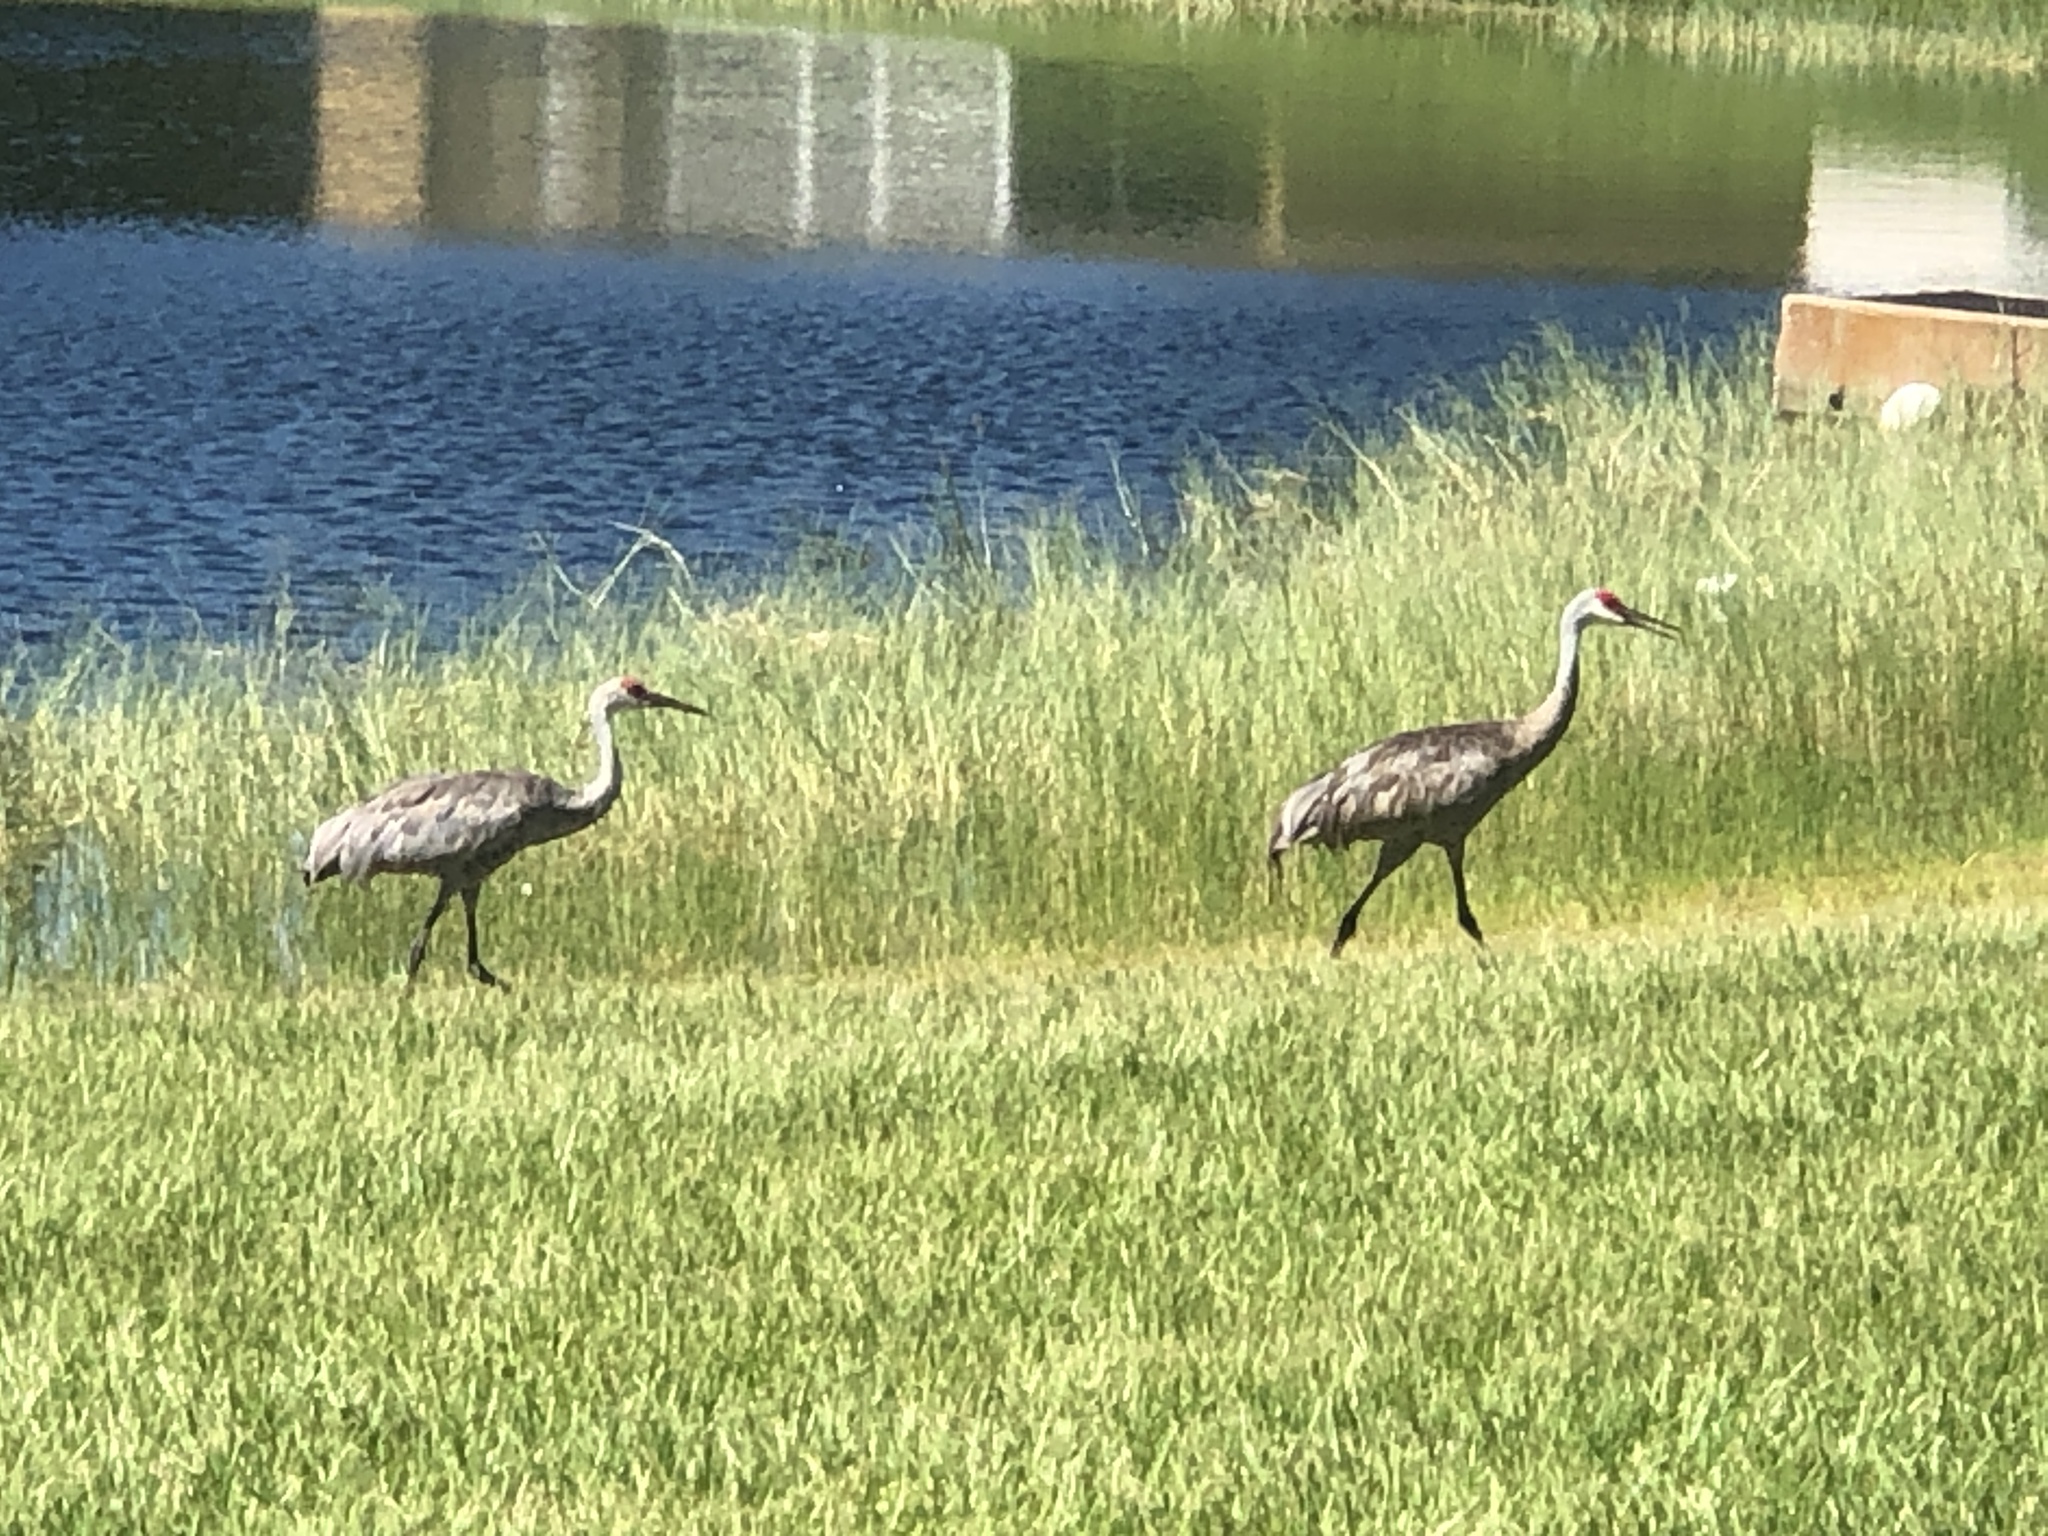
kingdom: Animalia
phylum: Chordata
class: Aves
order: Gruiformes
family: Gruidae
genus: Grus
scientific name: Grus canadensis
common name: Sandhill crane
